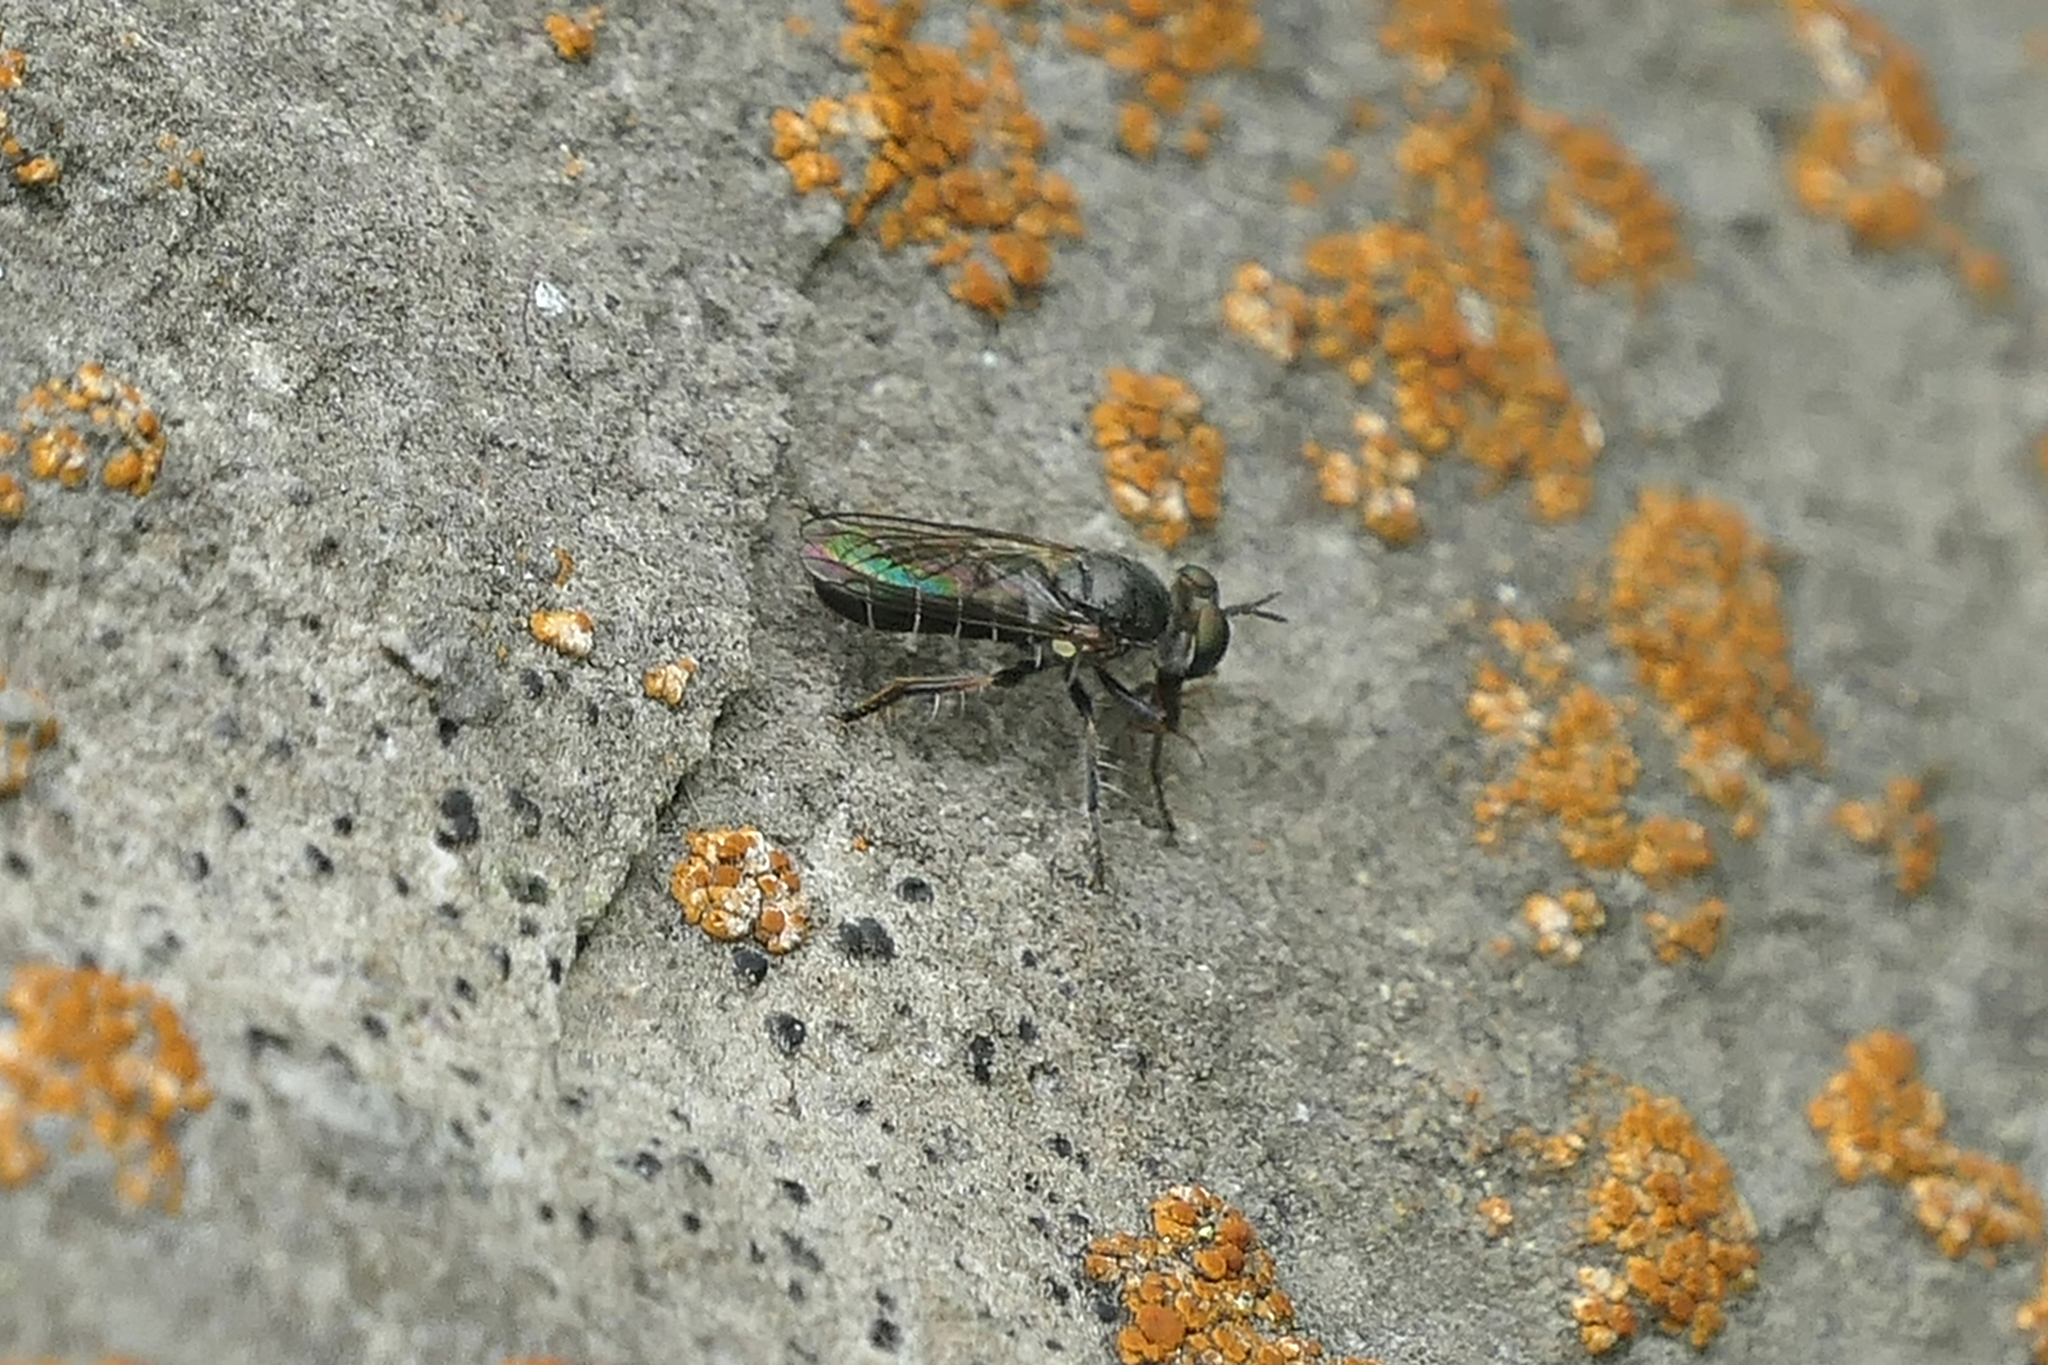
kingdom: Animalia
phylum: Arthropoda
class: Insecta
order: Diptera
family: Asilidae
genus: Atomosia
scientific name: Atomosia puella
